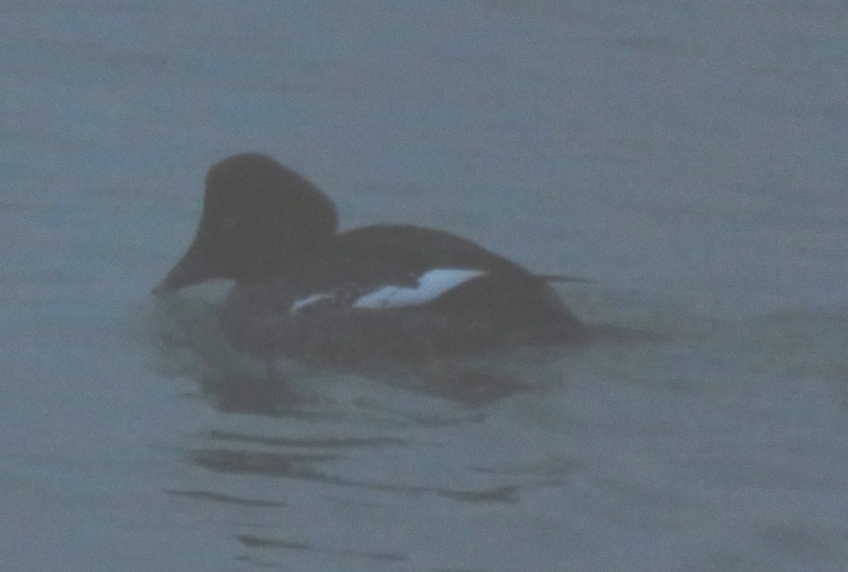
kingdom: Animalia
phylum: Chordata
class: Aves
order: Anseriformes
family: Anatidae
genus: Bucephala
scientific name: Bucephala clangula
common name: Common goldeneye
